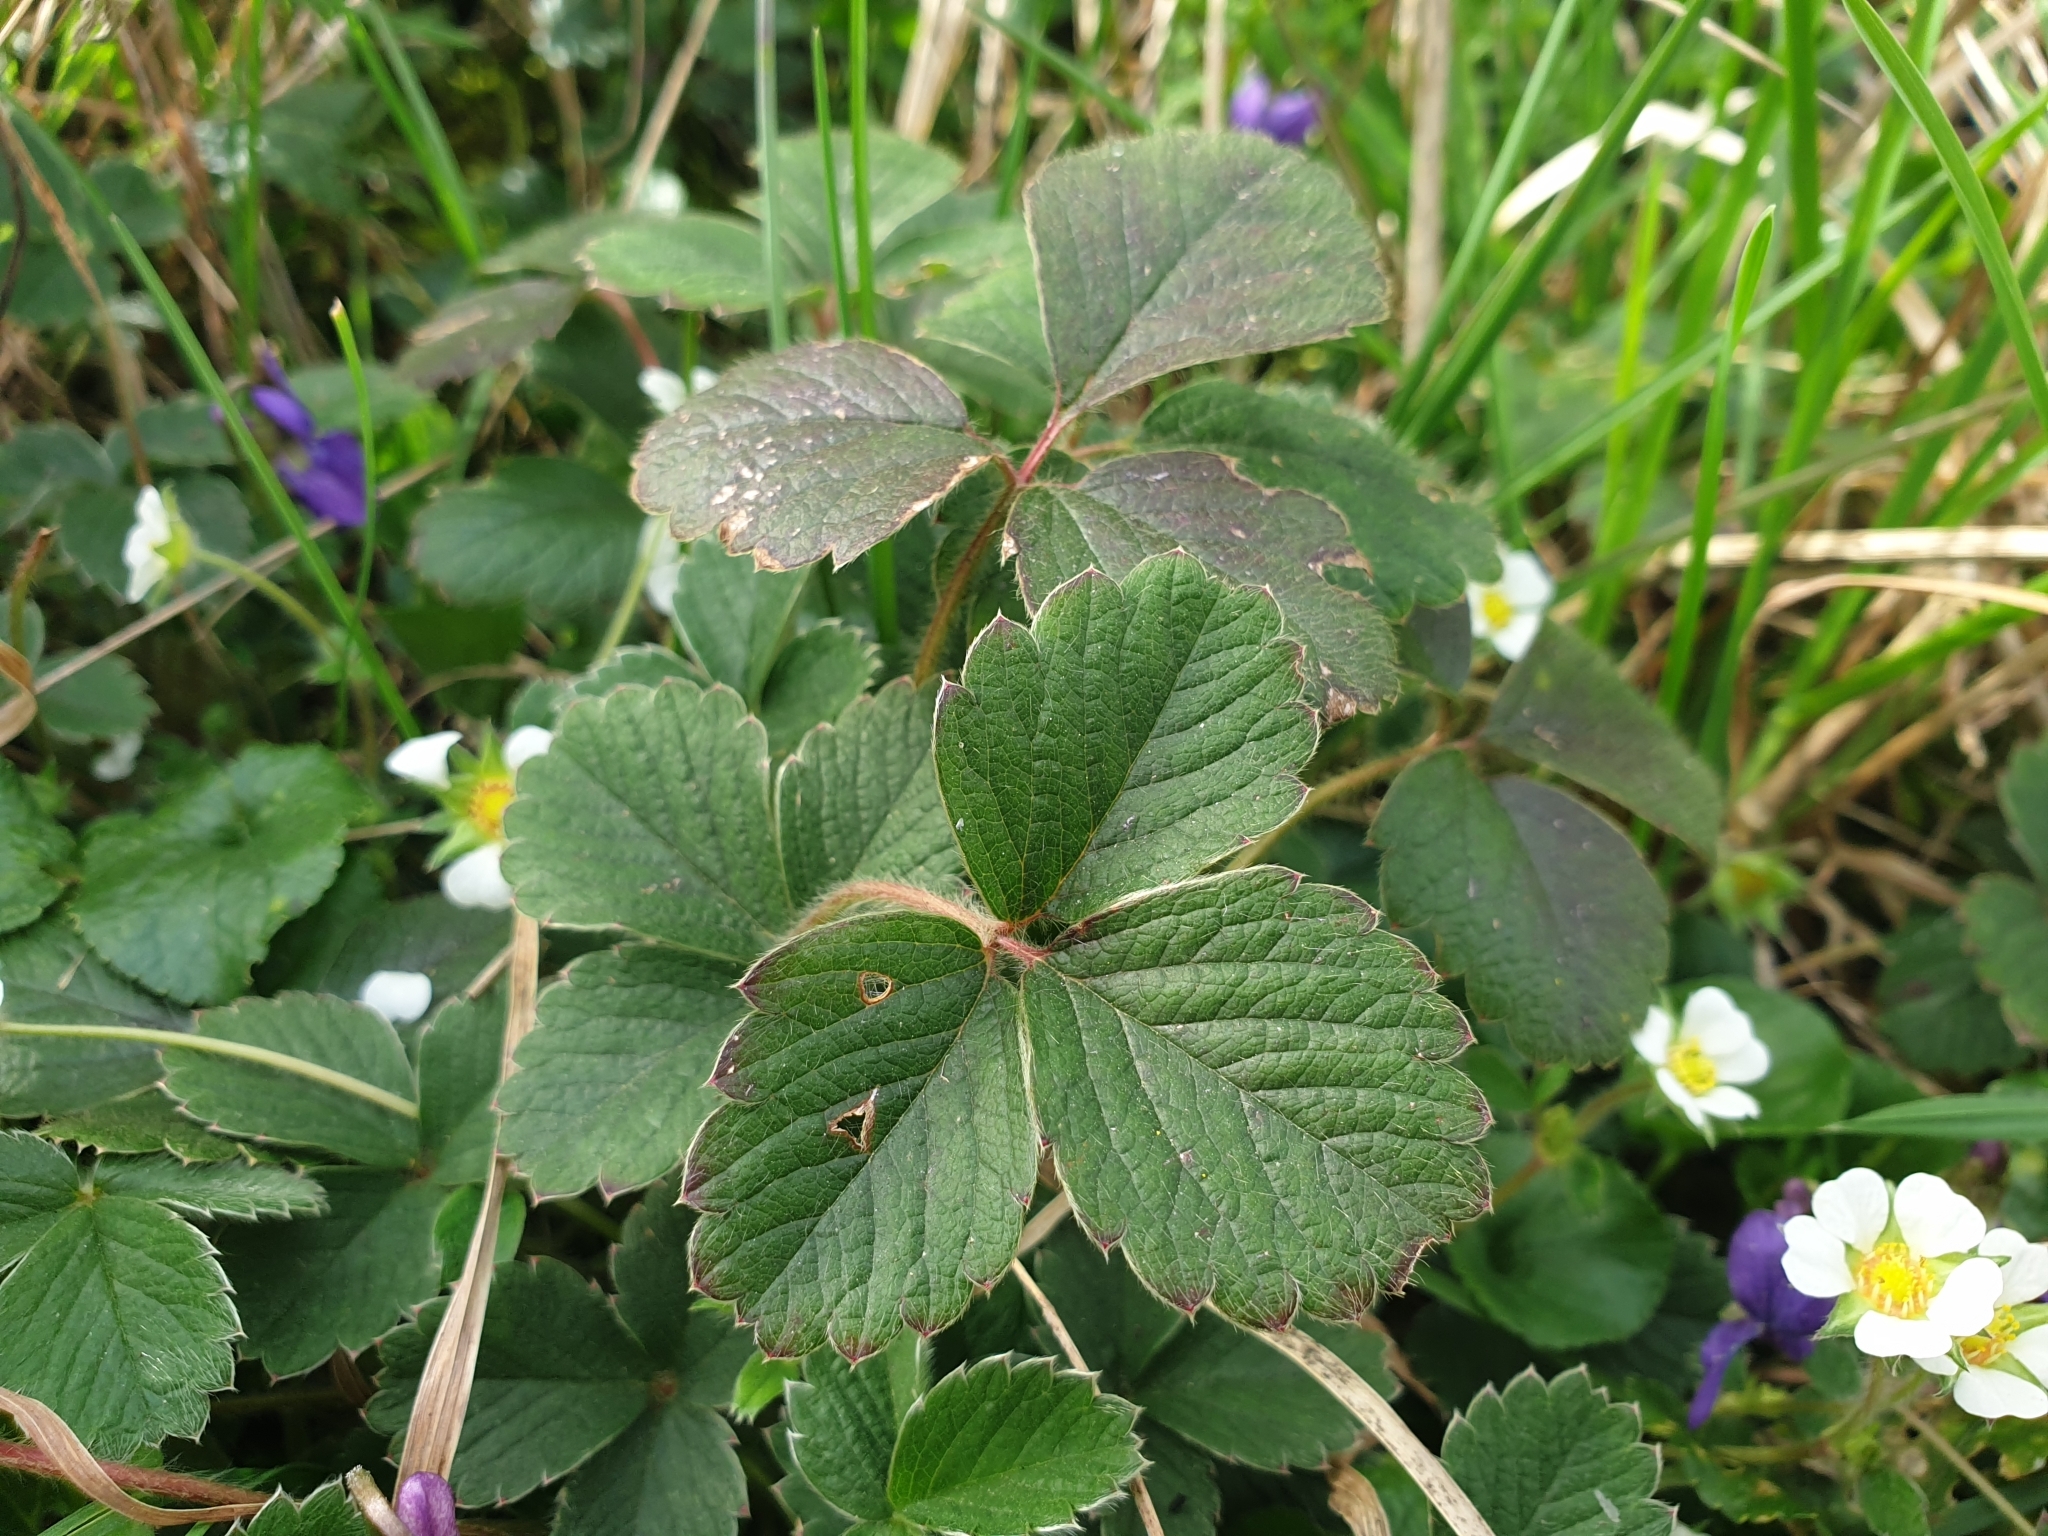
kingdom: Plantae
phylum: Tracheophyta
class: Magnoliopsida
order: Rosales
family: Rosaceae
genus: Potentilla
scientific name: Potentilla sterilis
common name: Barren strawberry
